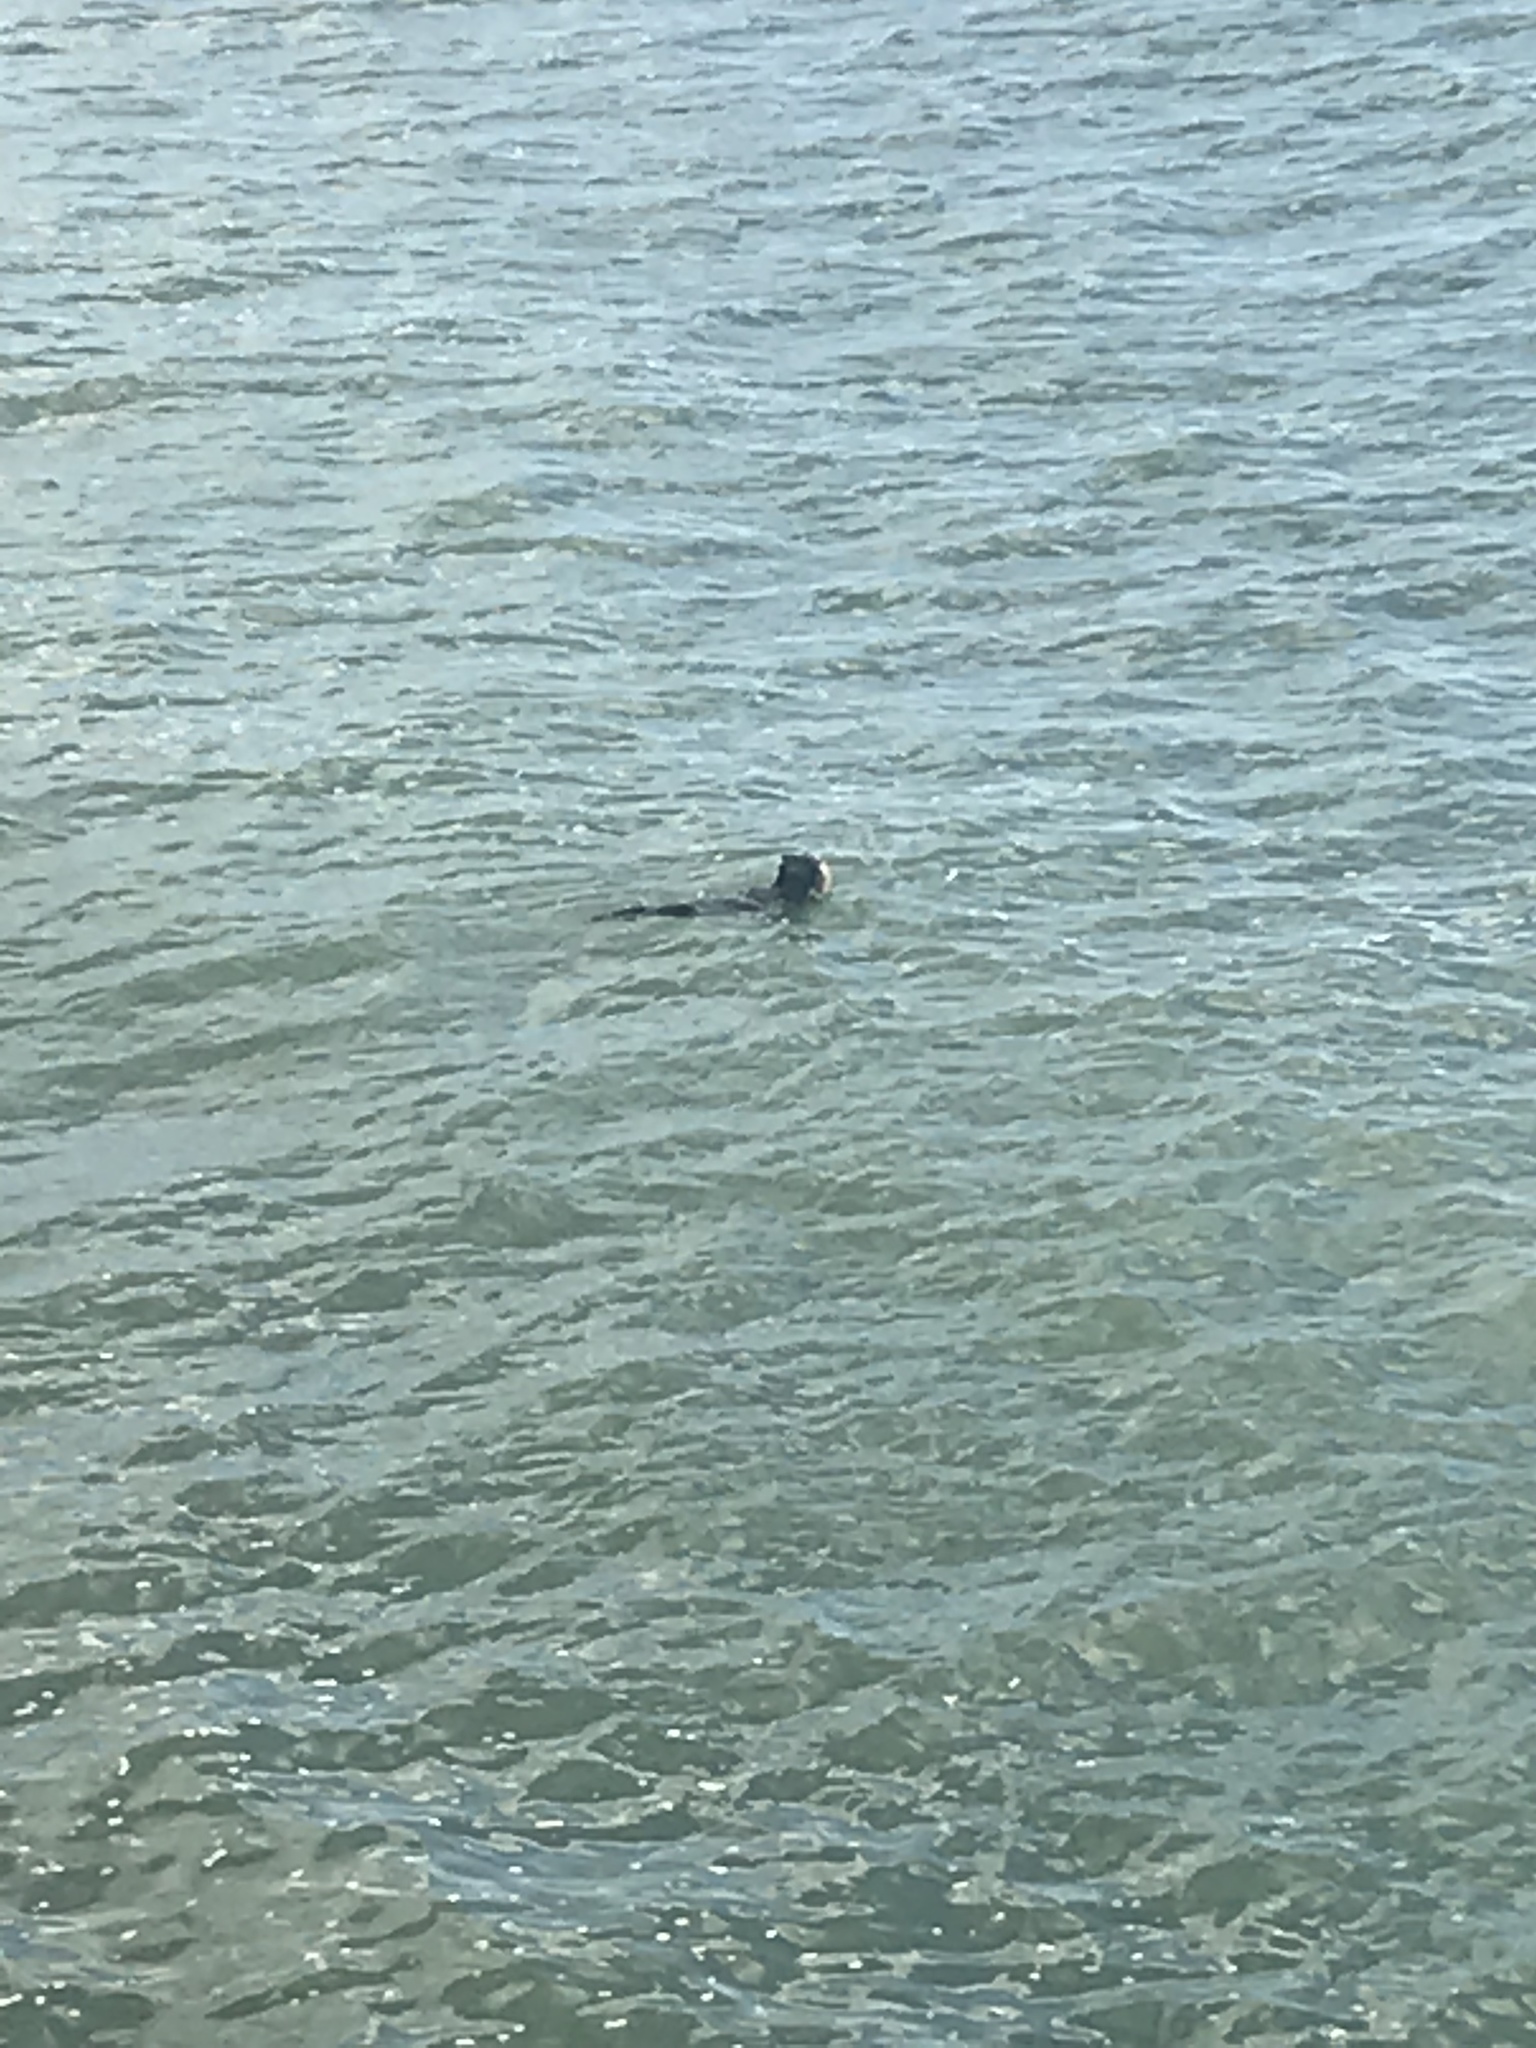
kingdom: Animalia
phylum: Chordata
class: Mammalia
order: Carnivora
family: Mustelidae
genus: Enhydra
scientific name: Enhydra lutris
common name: Sea otter
